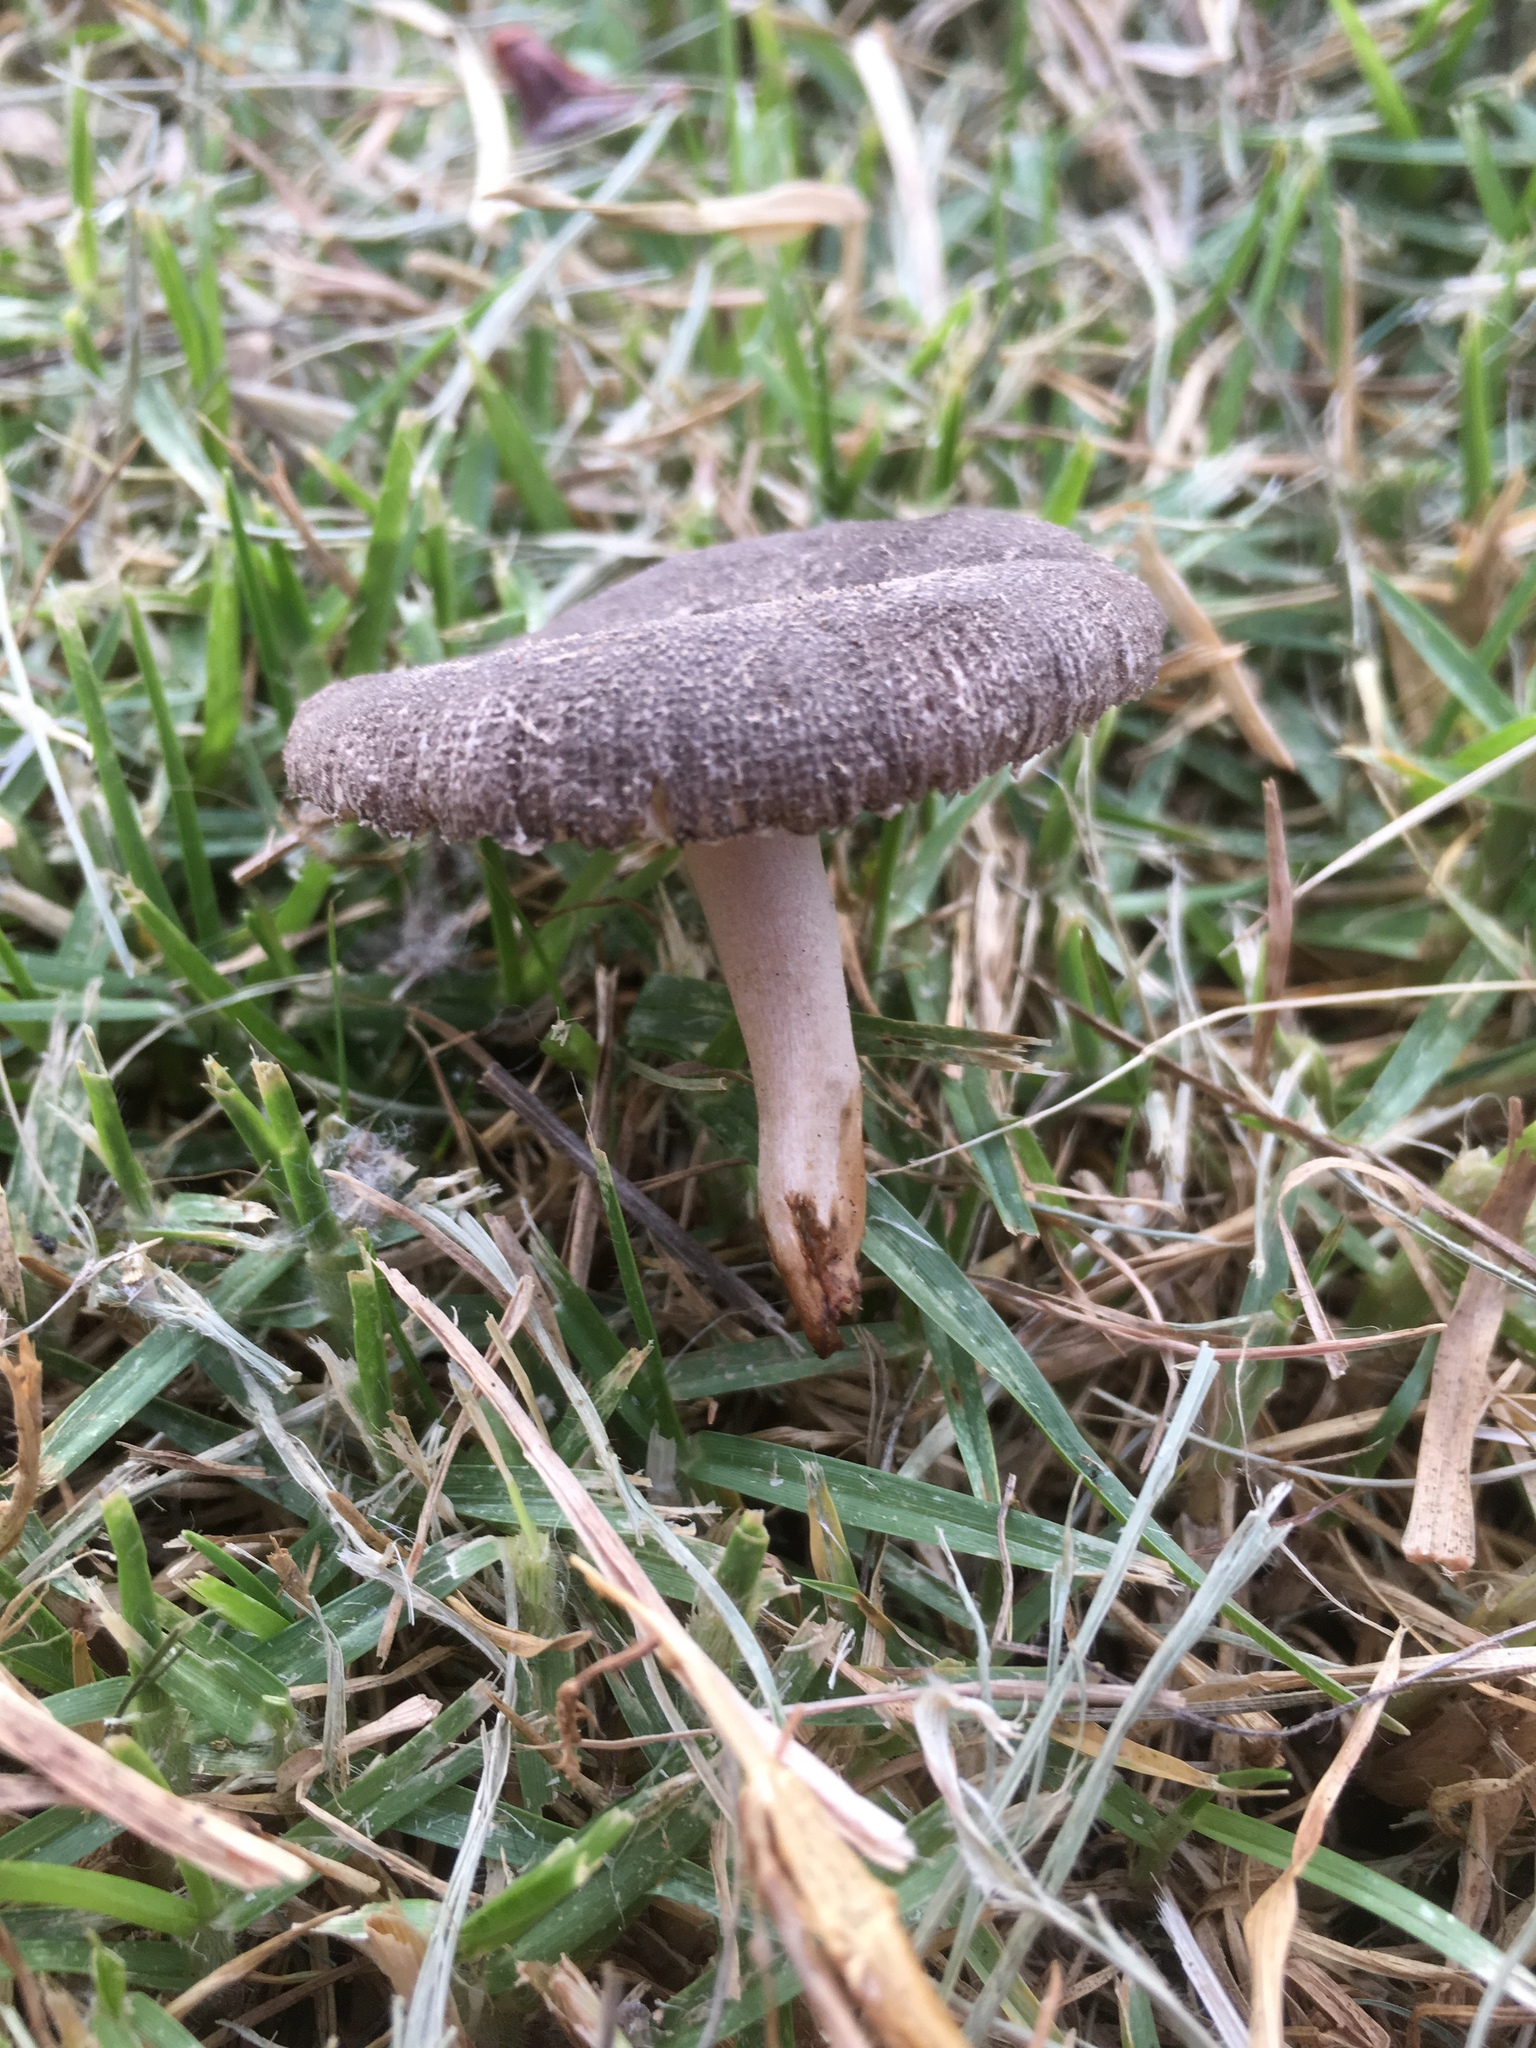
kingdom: Fungi
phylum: Basidiomycota
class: Agaricomycetes
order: Agaricales
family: Amanitaceae
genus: Amanita
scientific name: Amanita nehuta
